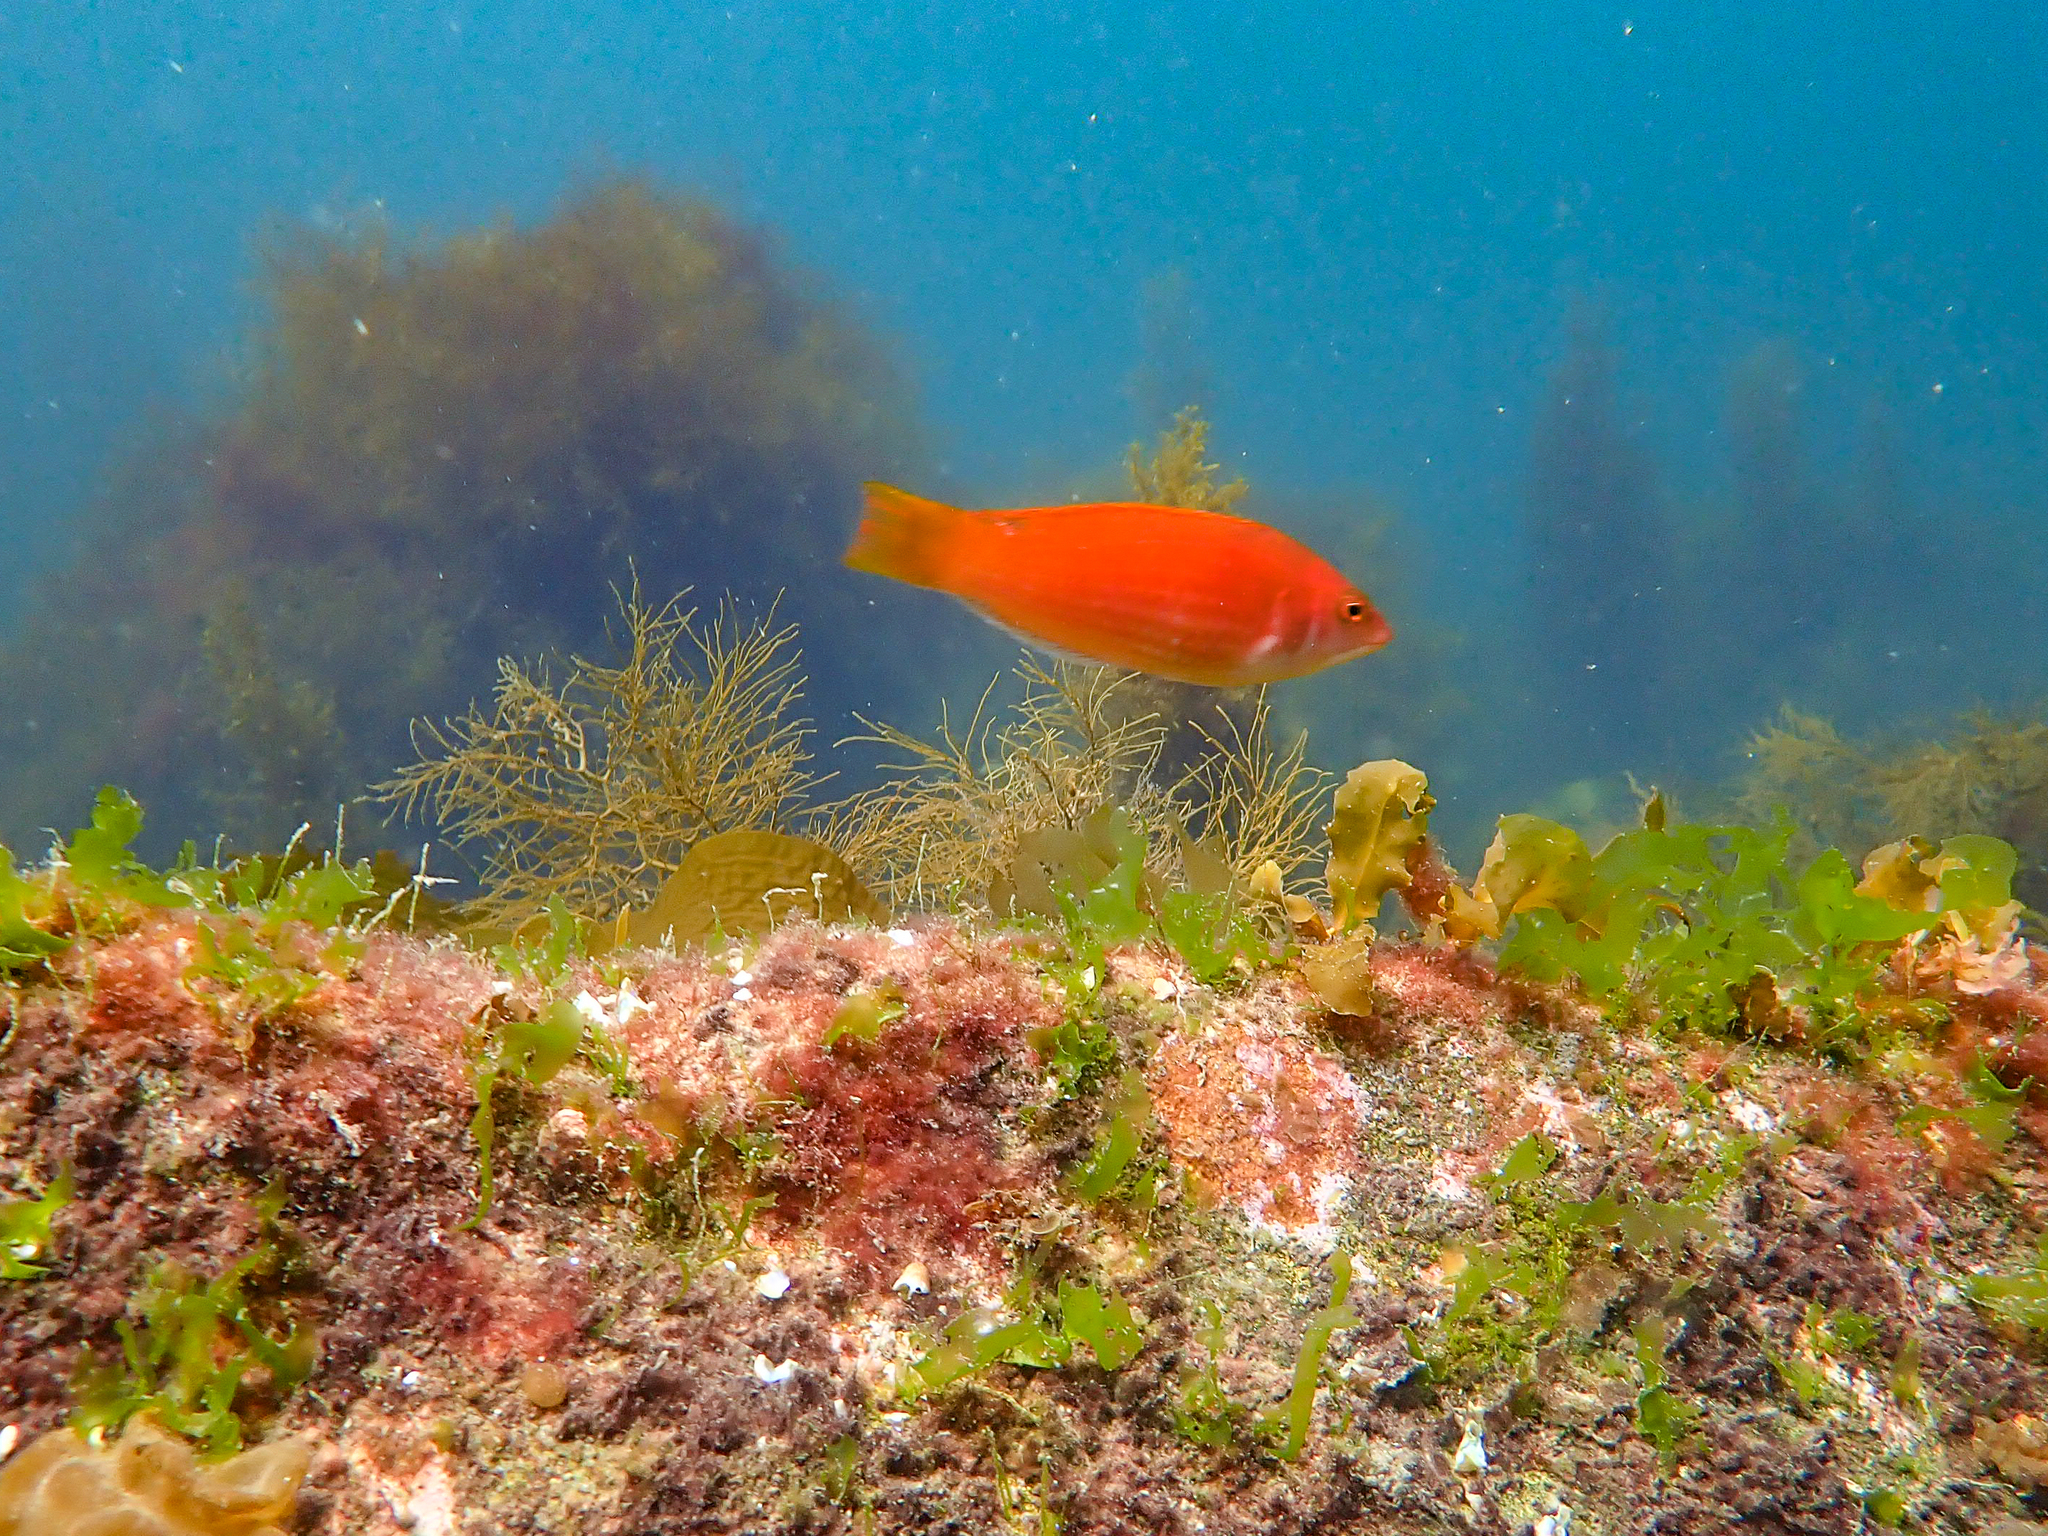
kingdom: Animalia
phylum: Chordata
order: Perciformes
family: Labridae
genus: Pseudolabrus
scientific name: Pseudolabrus rubicundus
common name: Rosy parrotfish
